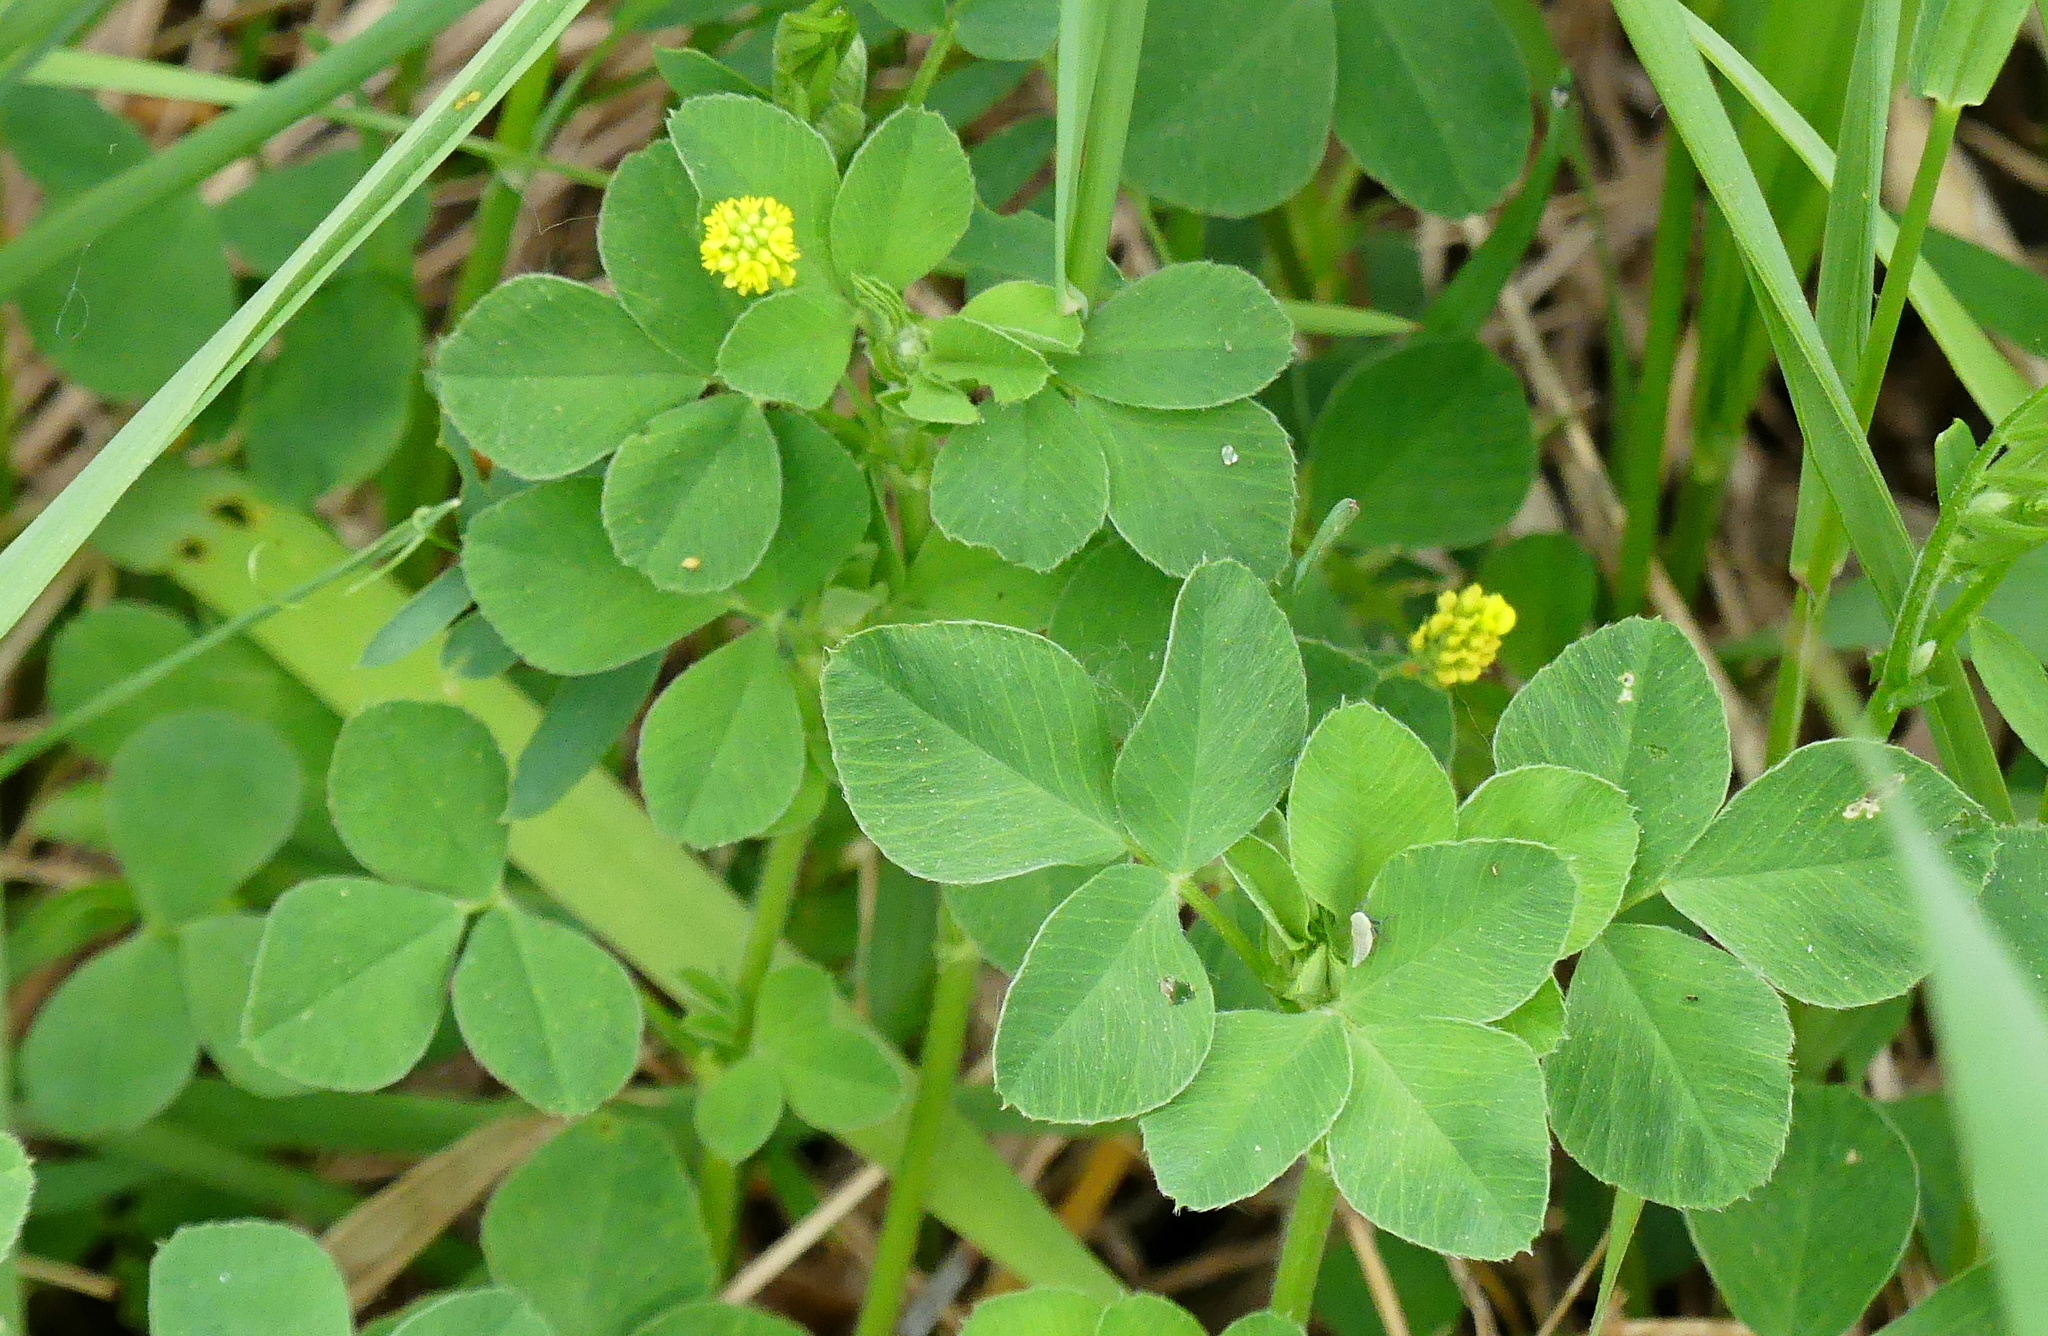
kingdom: Plantae
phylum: Tracheophyta
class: Magnoliopsida
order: Fabales
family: Fabaceae
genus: Medicago
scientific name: Medicago lupulina
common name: Black medick
